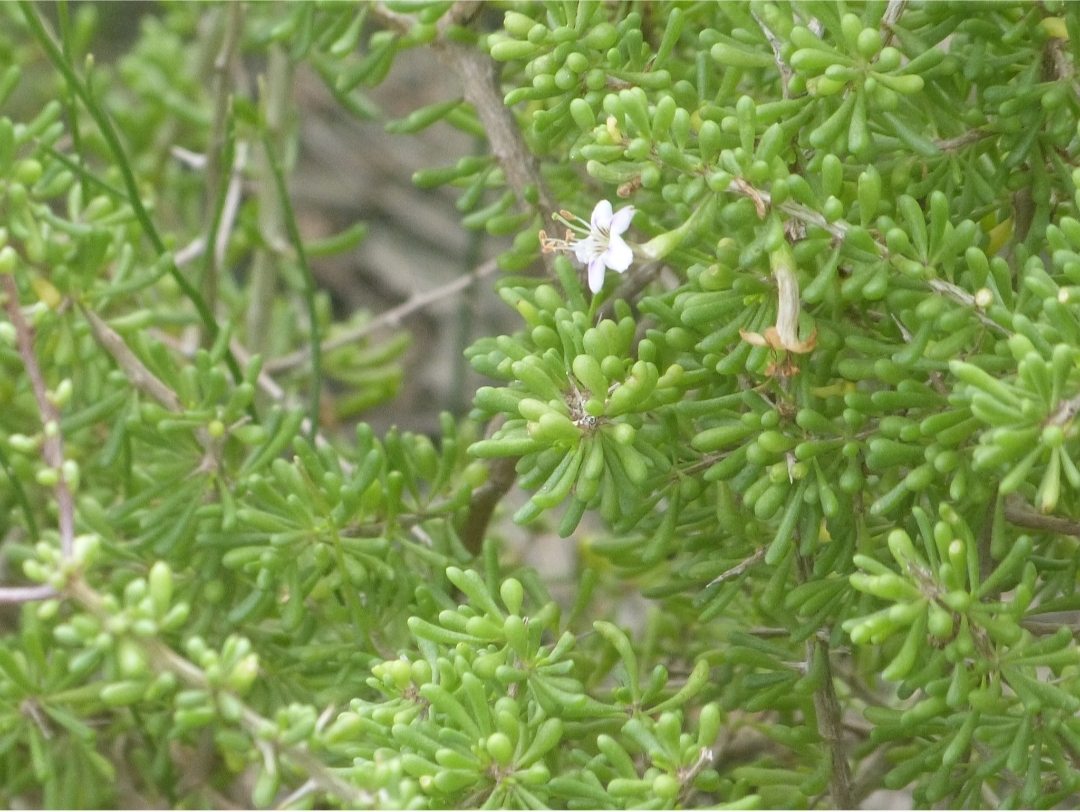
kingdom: Plantae
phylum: Tracheophyta
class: Magnoliopsida
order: Solanales
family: Solanaceae
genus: Lycium
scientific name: Lycium infaustum
